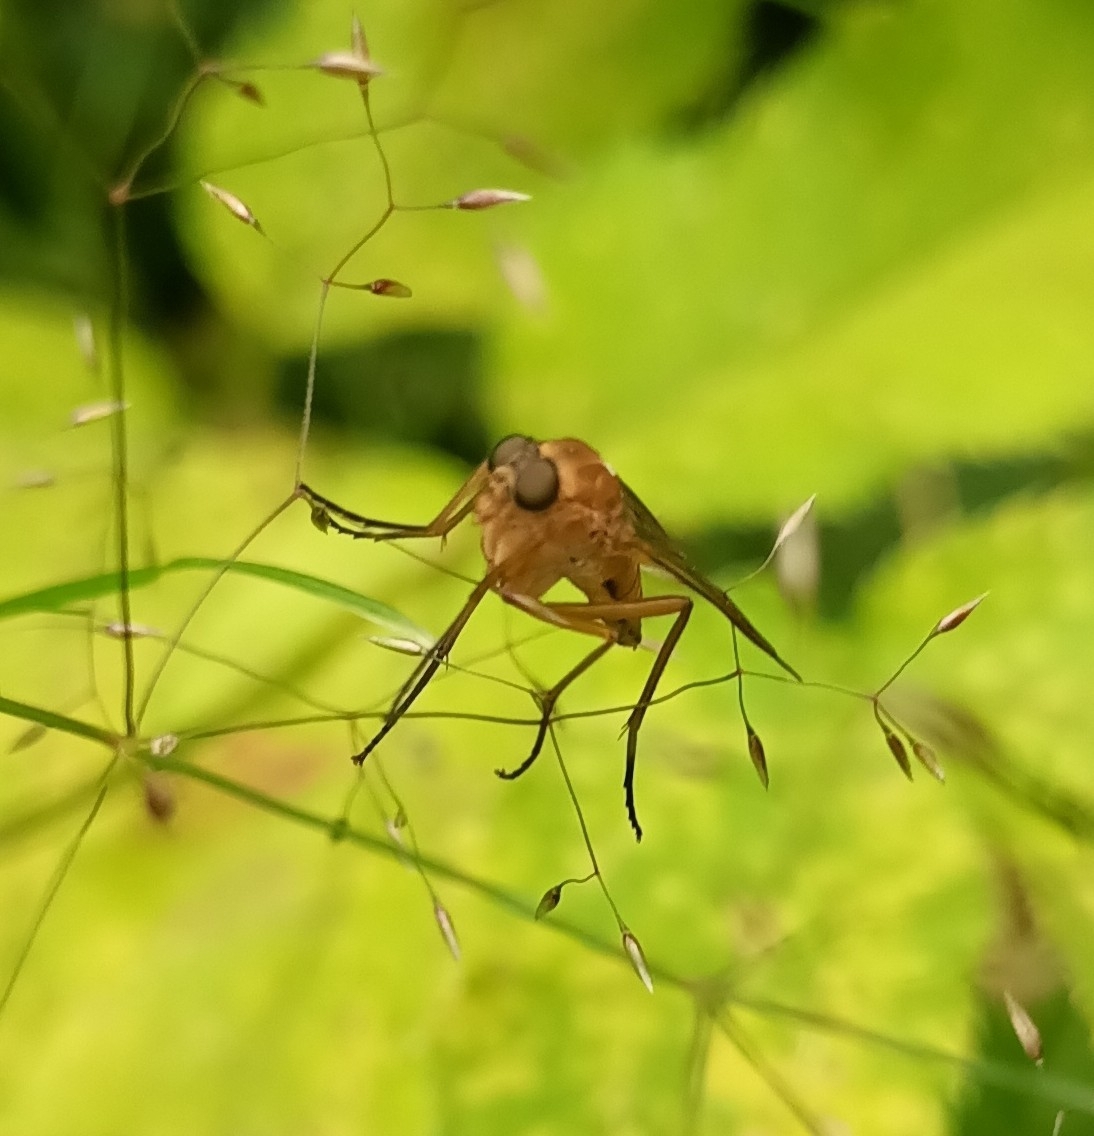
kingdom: Animalia
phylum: Arthropoda
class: Insecta
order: Diptera
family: Rhagionidae
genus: Rhagio
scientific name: Rhagio tringaria
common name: Marsh snipefly
